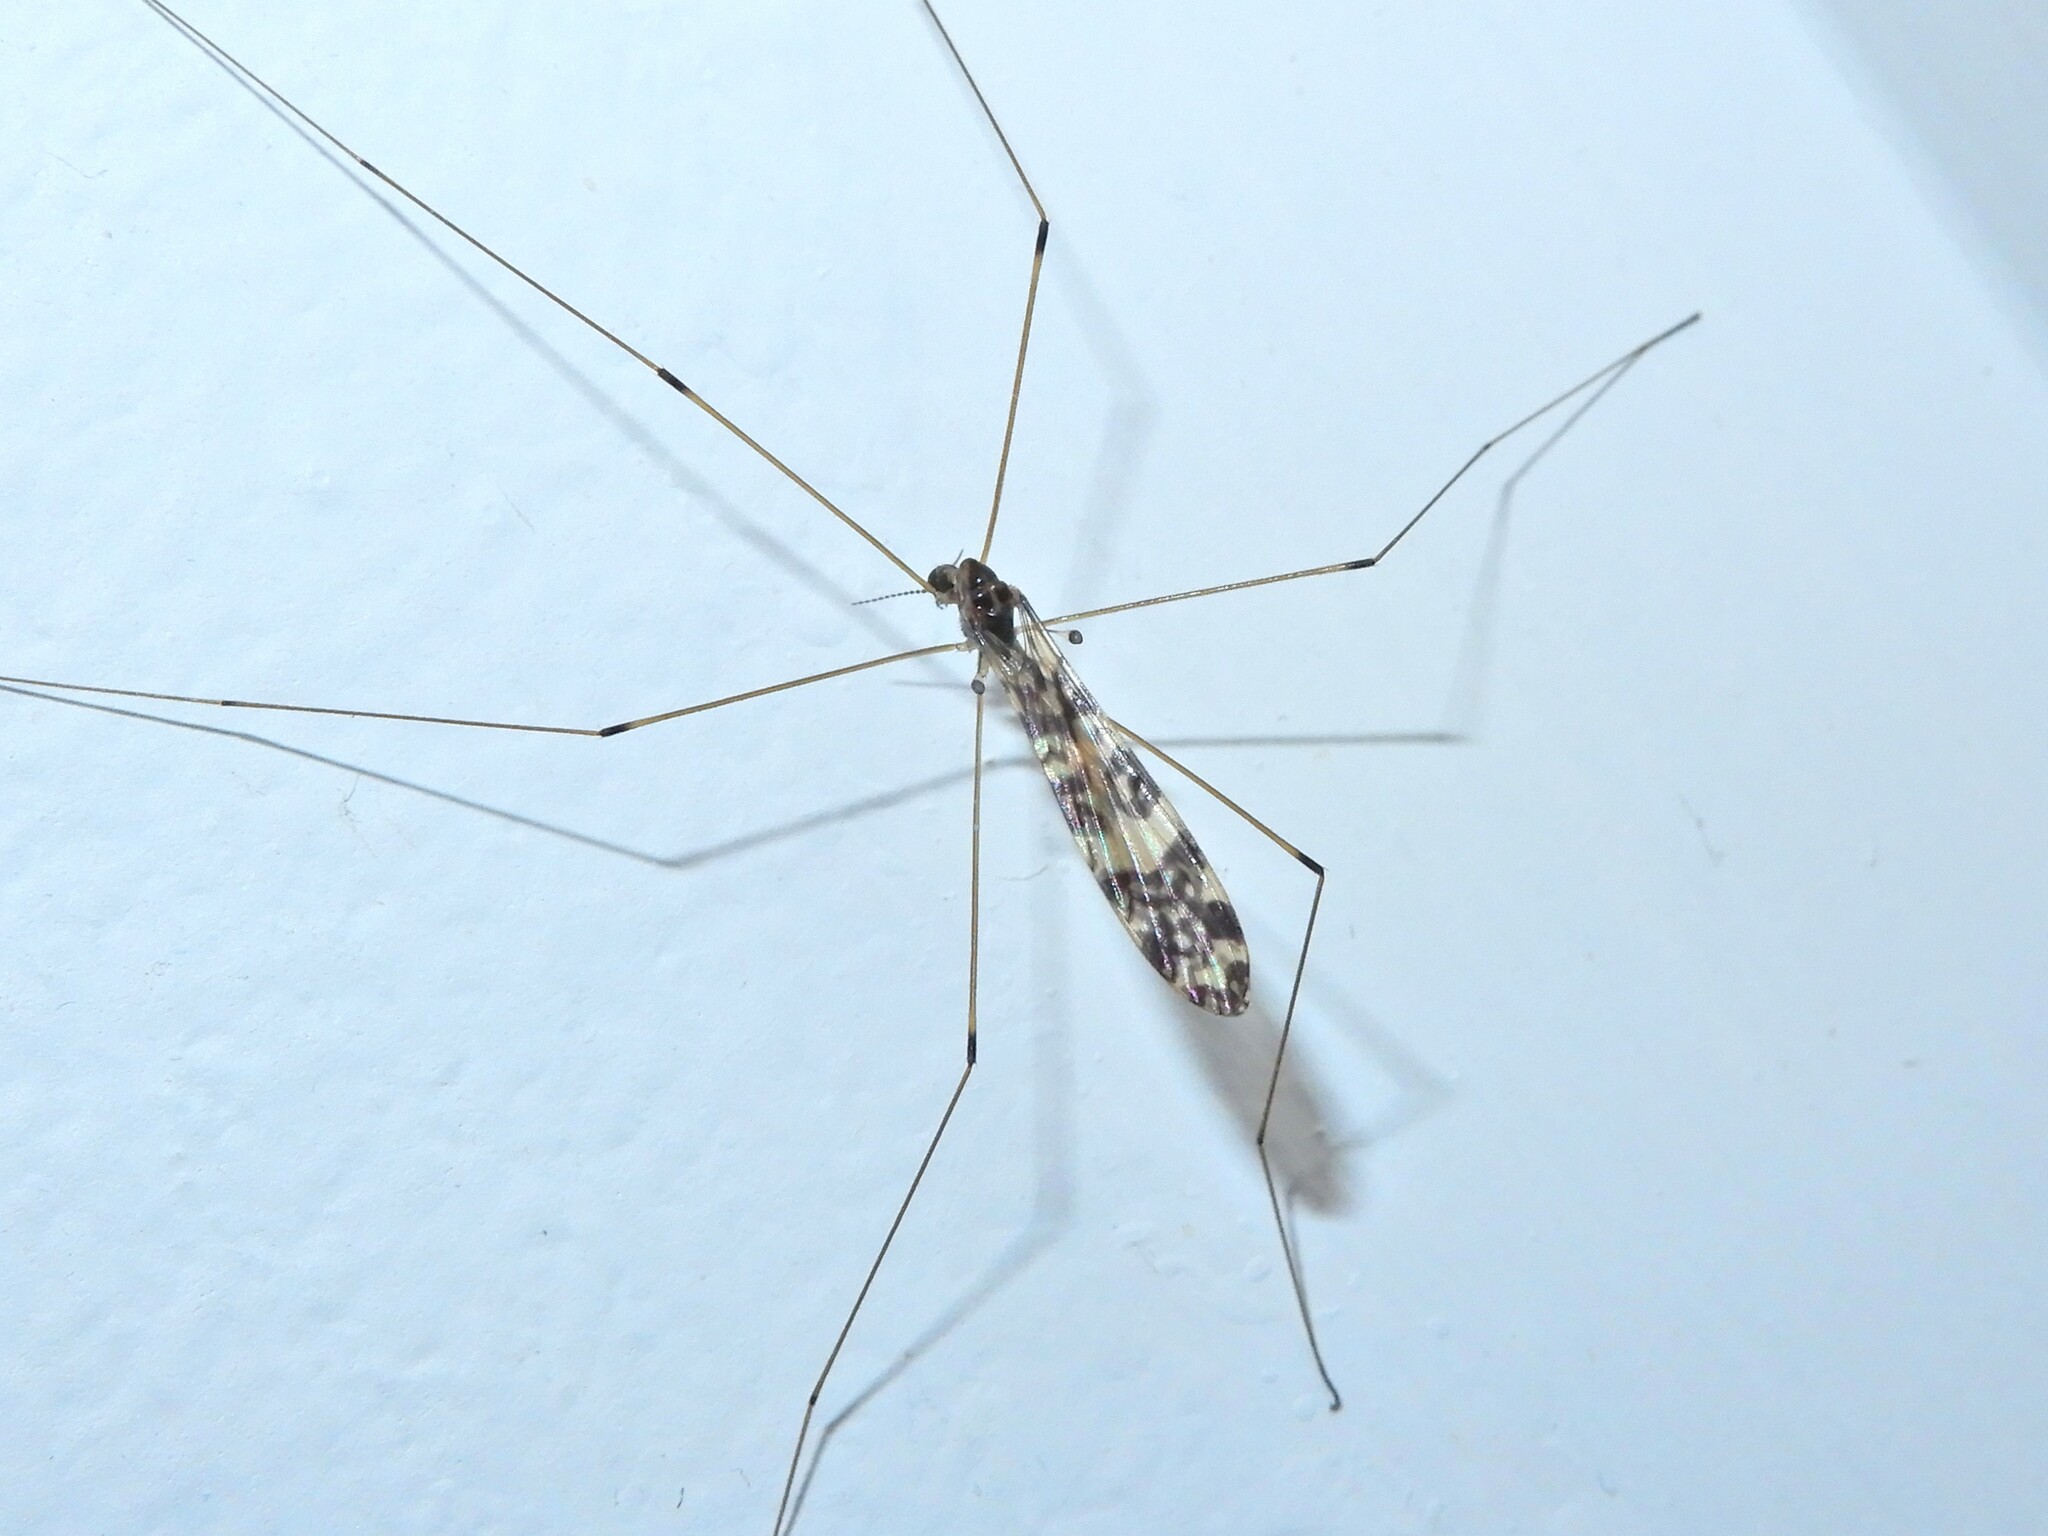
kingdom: Animalia
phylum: Arthropoda
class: Insecta
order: Diptera
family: Limoniidae
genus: Discobola
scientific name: Discobola gibberina
